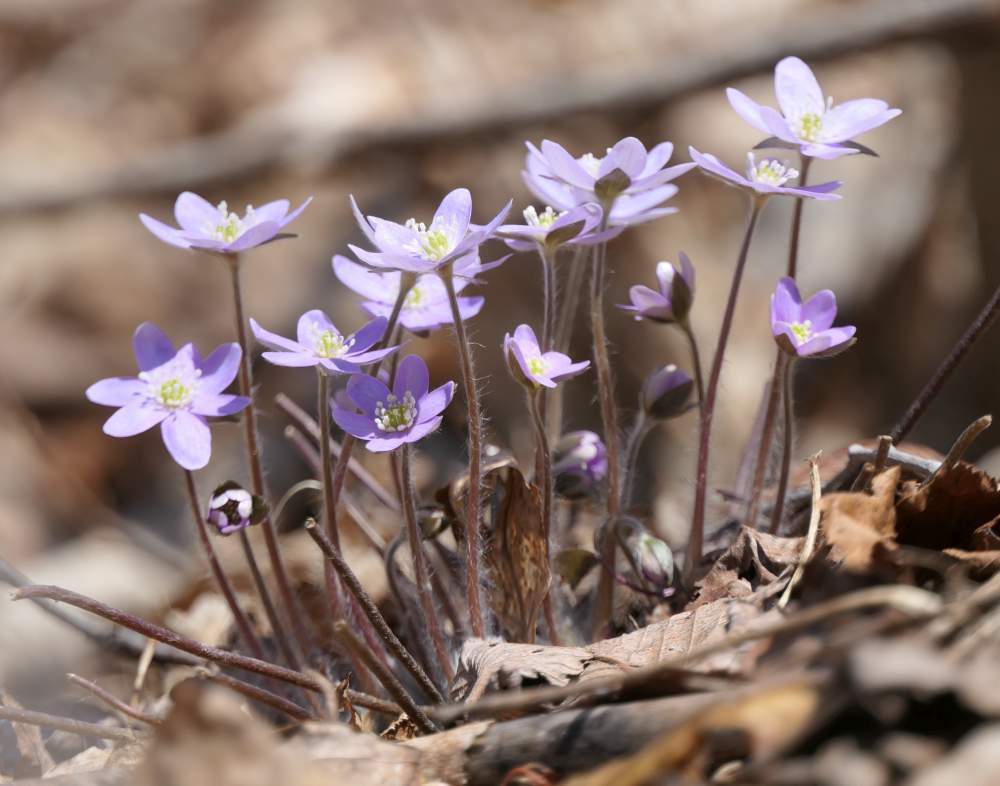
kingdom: Plantae
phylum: Tracheophyta
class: Magnoliopsida
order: Ranunculales
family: Ranunculaceae
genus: Hepatica
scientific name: Hepatica acutiloba
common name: Sharp-lobed hepatica
